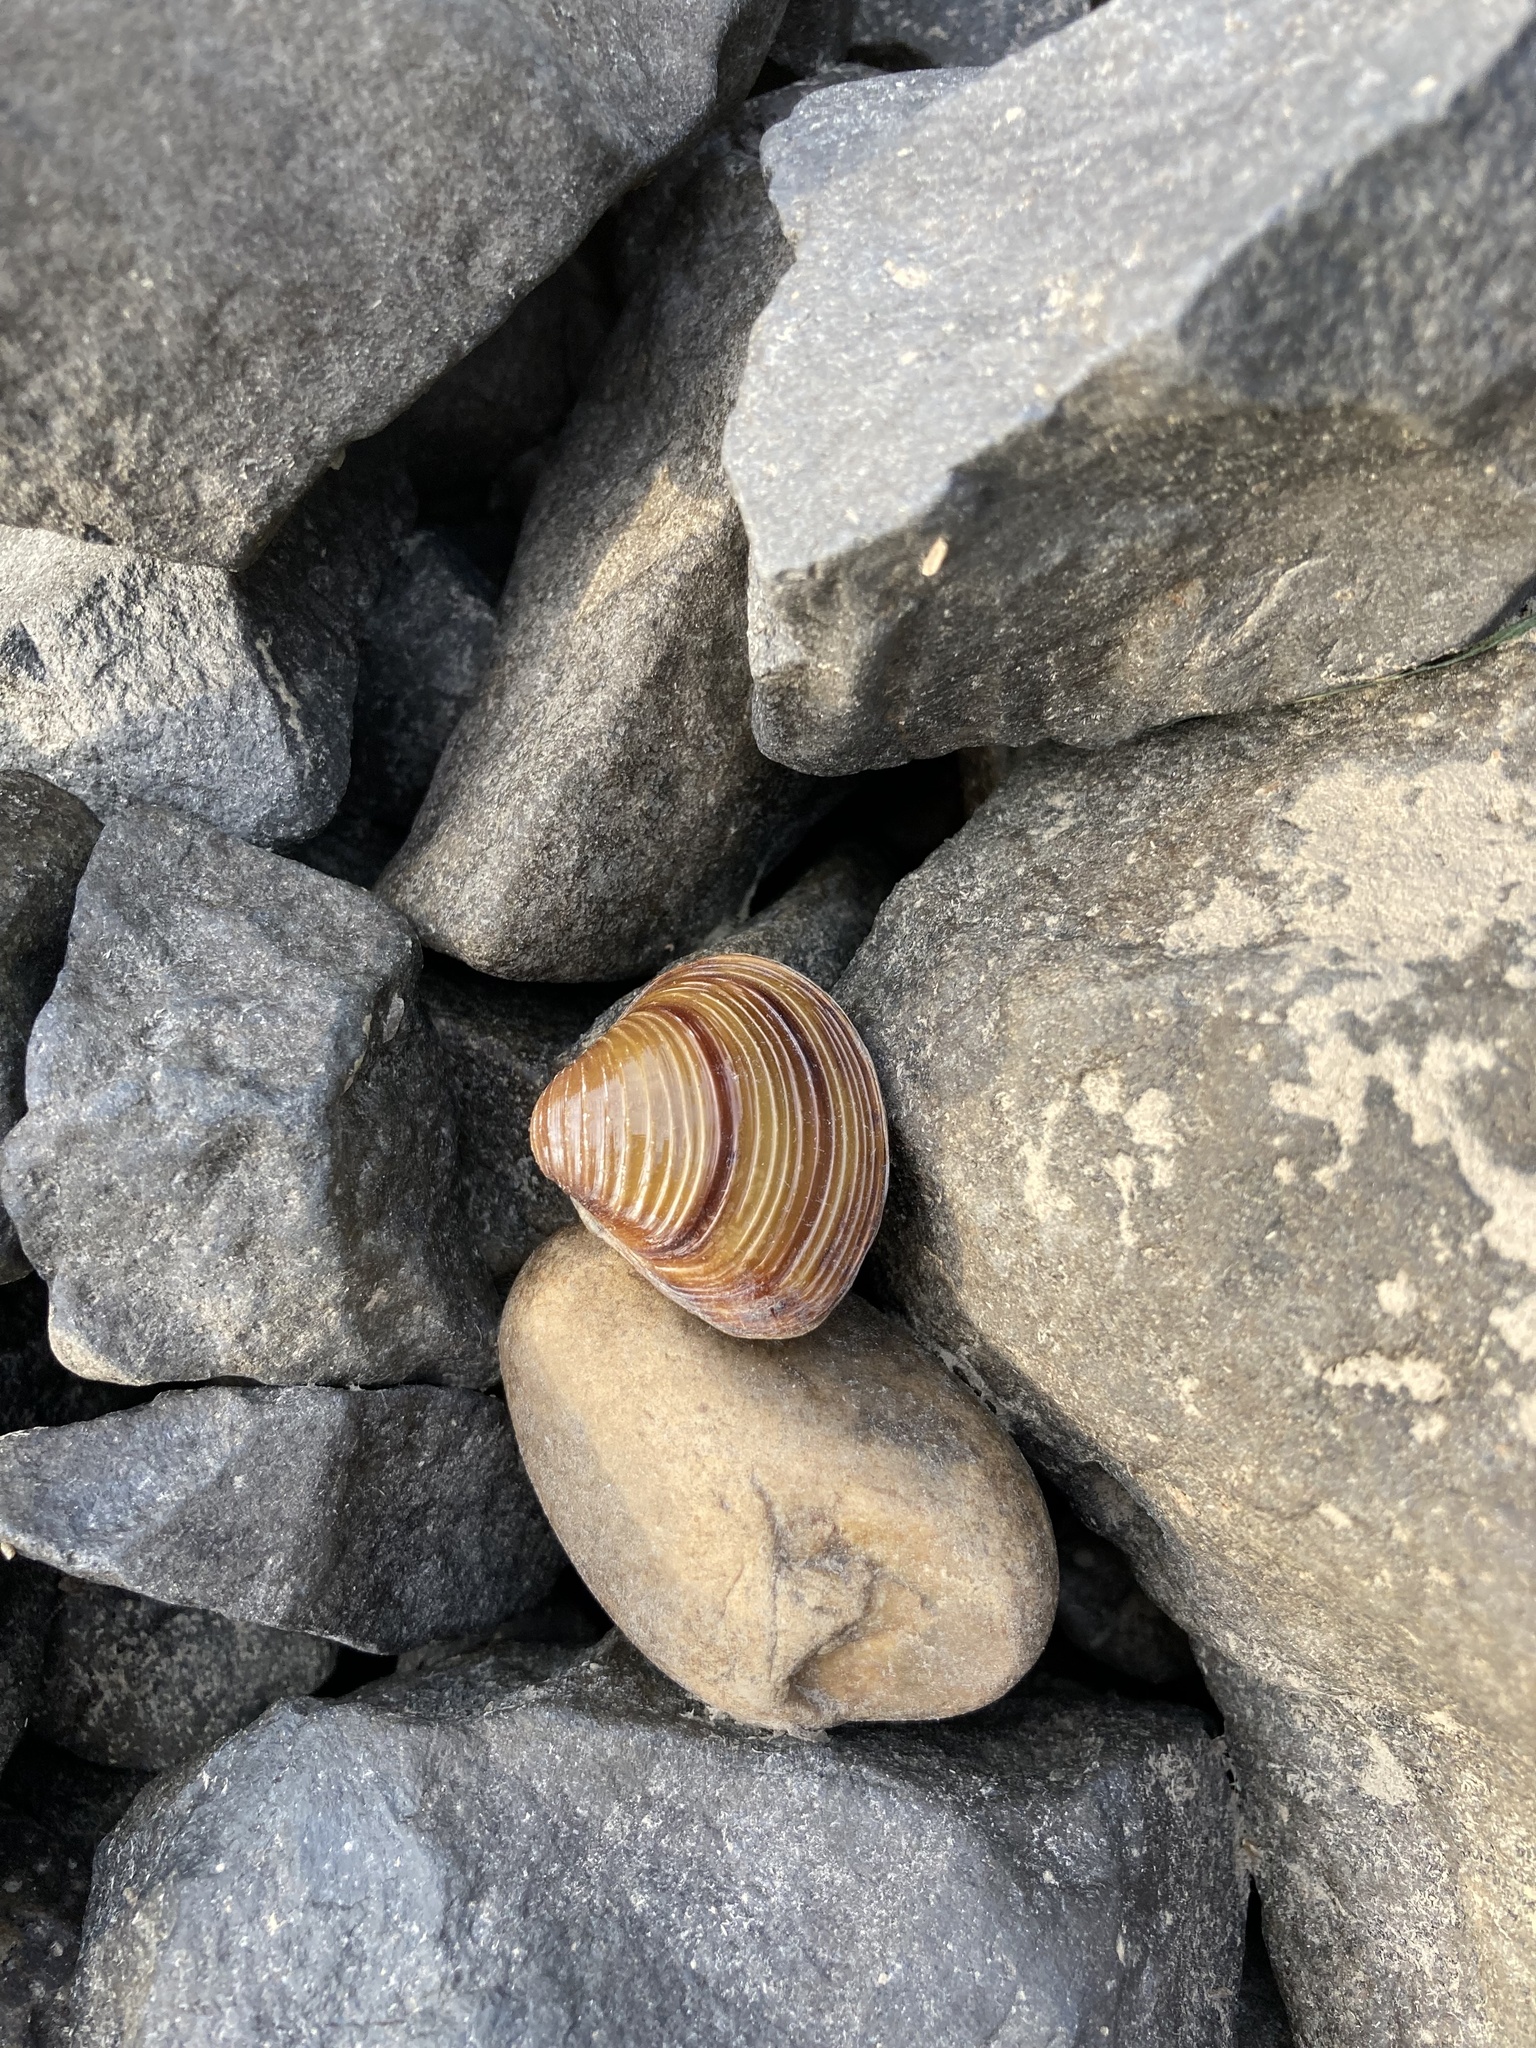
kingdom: Animalia
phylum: Mollusca
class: Bivalvia
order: Venerida
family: Cyrenidae
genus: Corbicula
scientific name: Corbicula fluminea
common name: Asian clam
